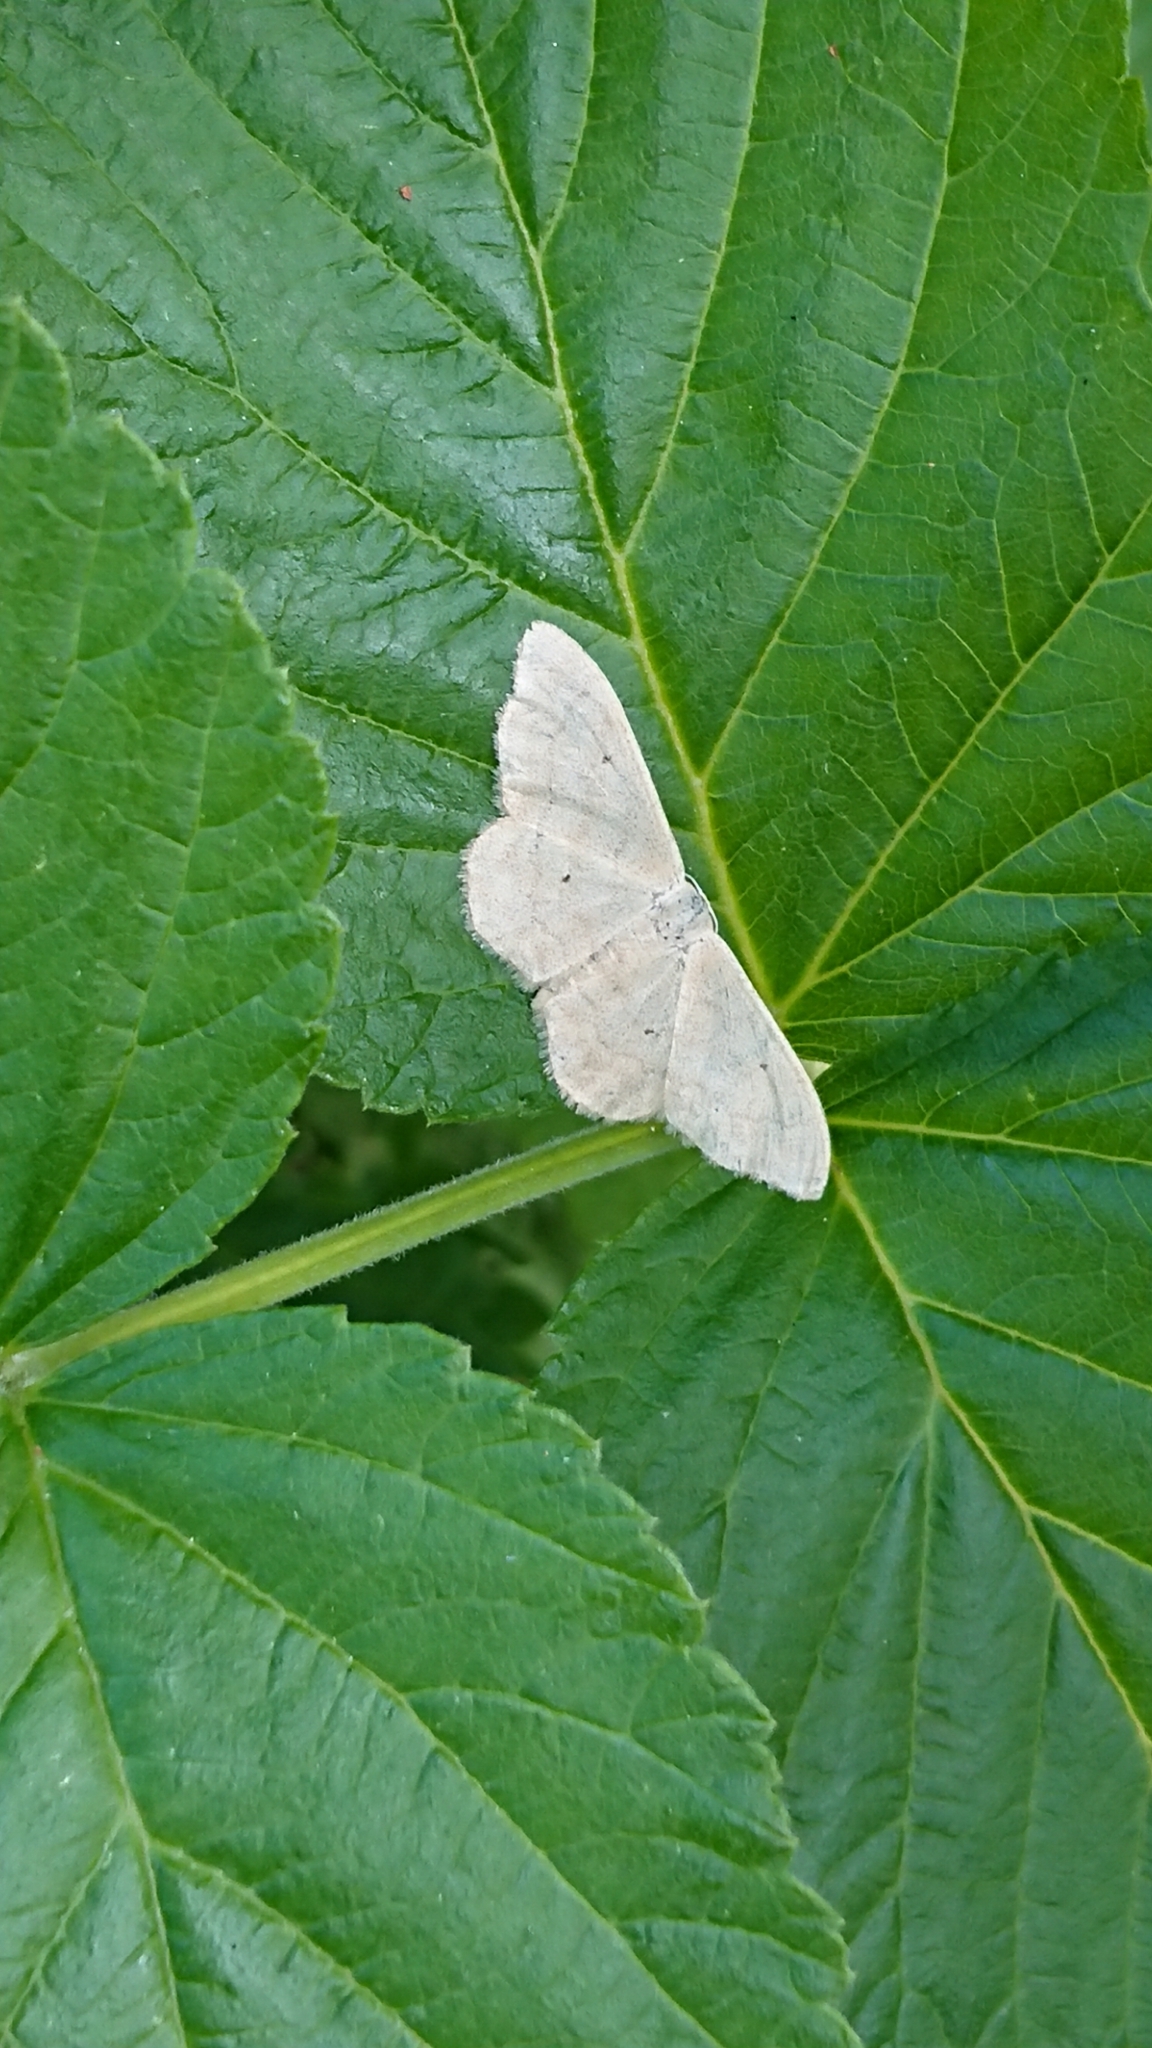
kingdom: Animalia
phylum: Arthropoda
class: Insecta
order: Lepidoptera
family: Geometridae
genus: Idaea
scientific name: Idaea aversata
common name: Riband wave
